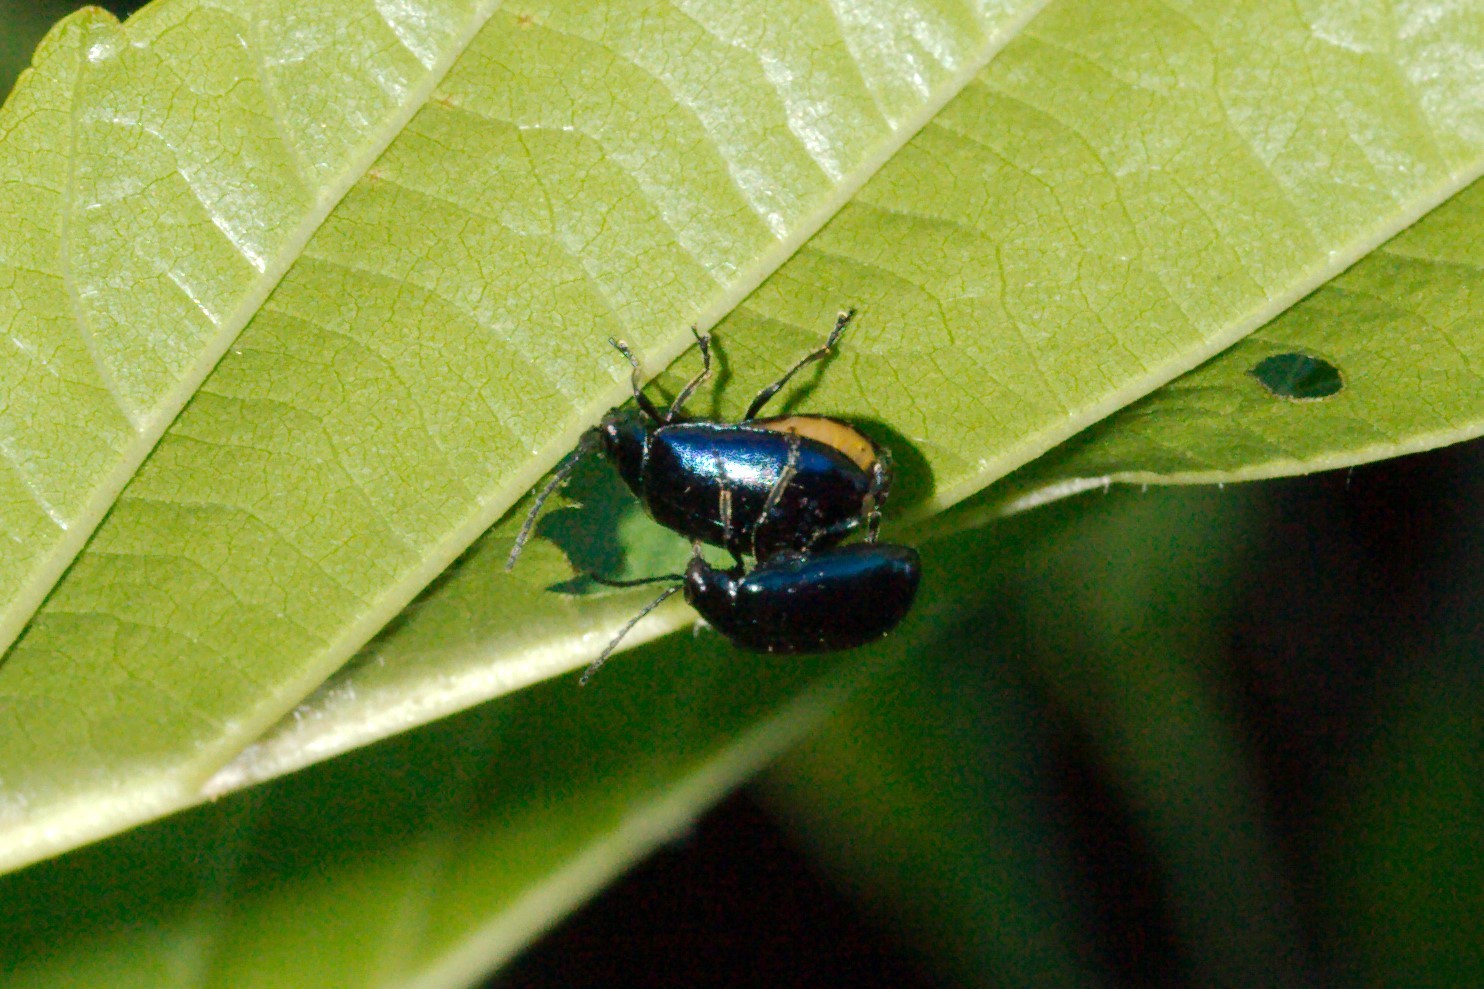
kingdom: Animalia
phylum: Arthropoda
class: Insecta
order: Coleoptera
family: Chrysomelidae
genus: Agelastica
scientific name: Agelastica alni
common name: Alder leaf beetle
